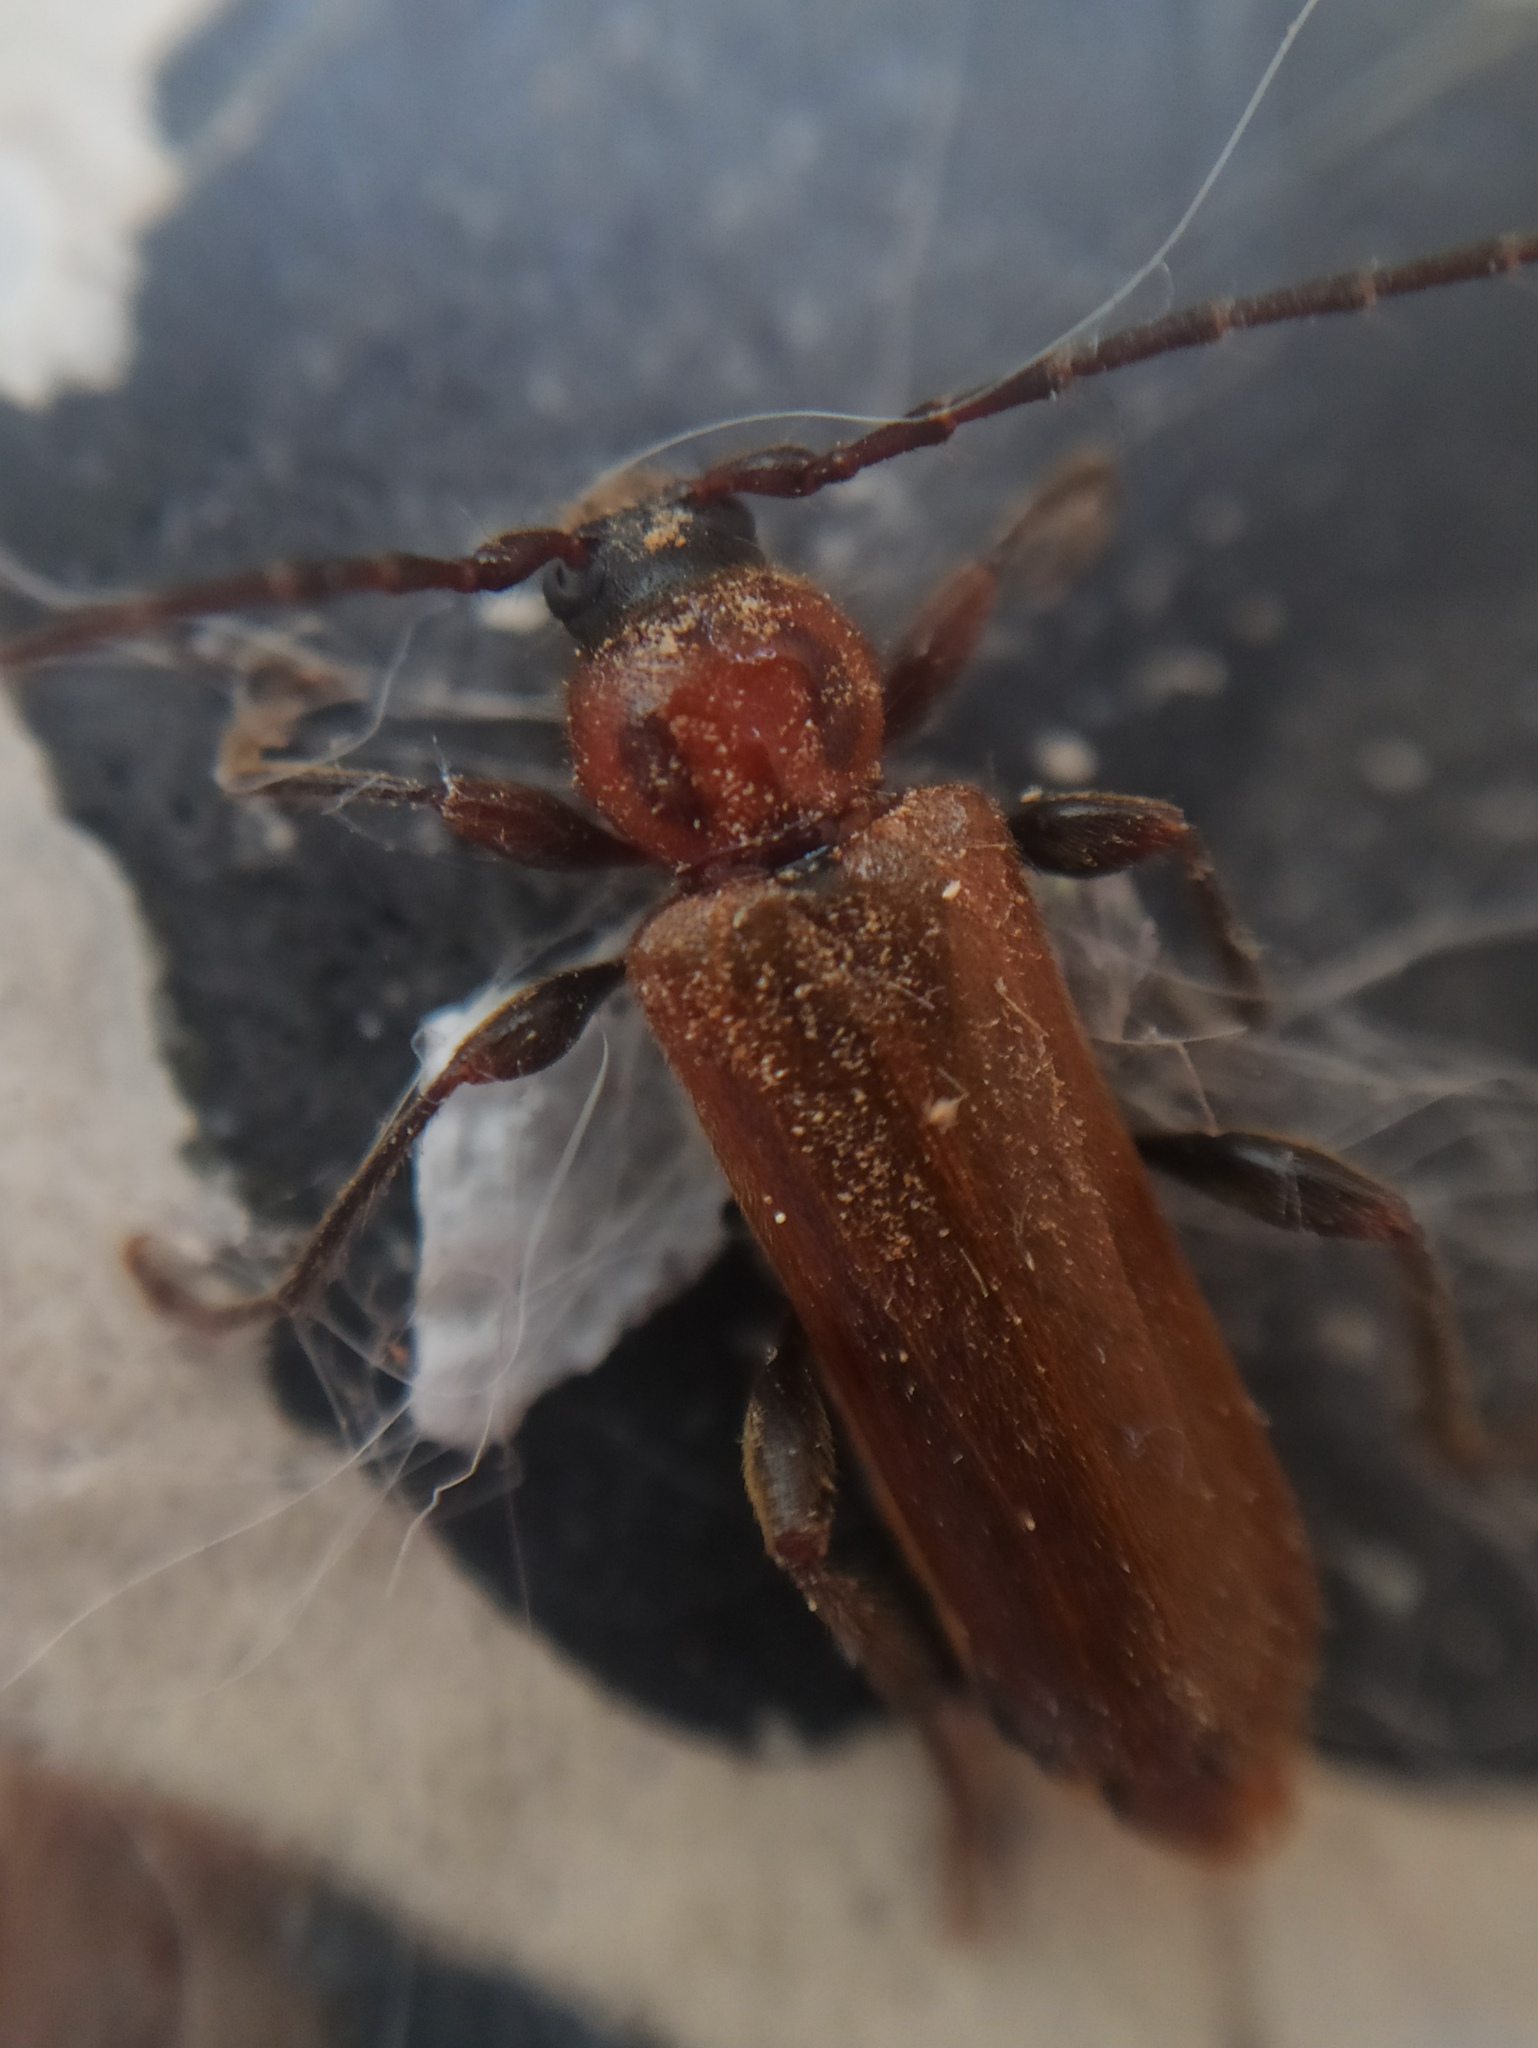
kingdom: Animalia
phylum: Arthropoda
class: Insecta
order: Coleoptera
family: Cerambycidae
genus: Phymatodes
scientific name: Phymatodes testaceus
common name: Long-horned beetle
